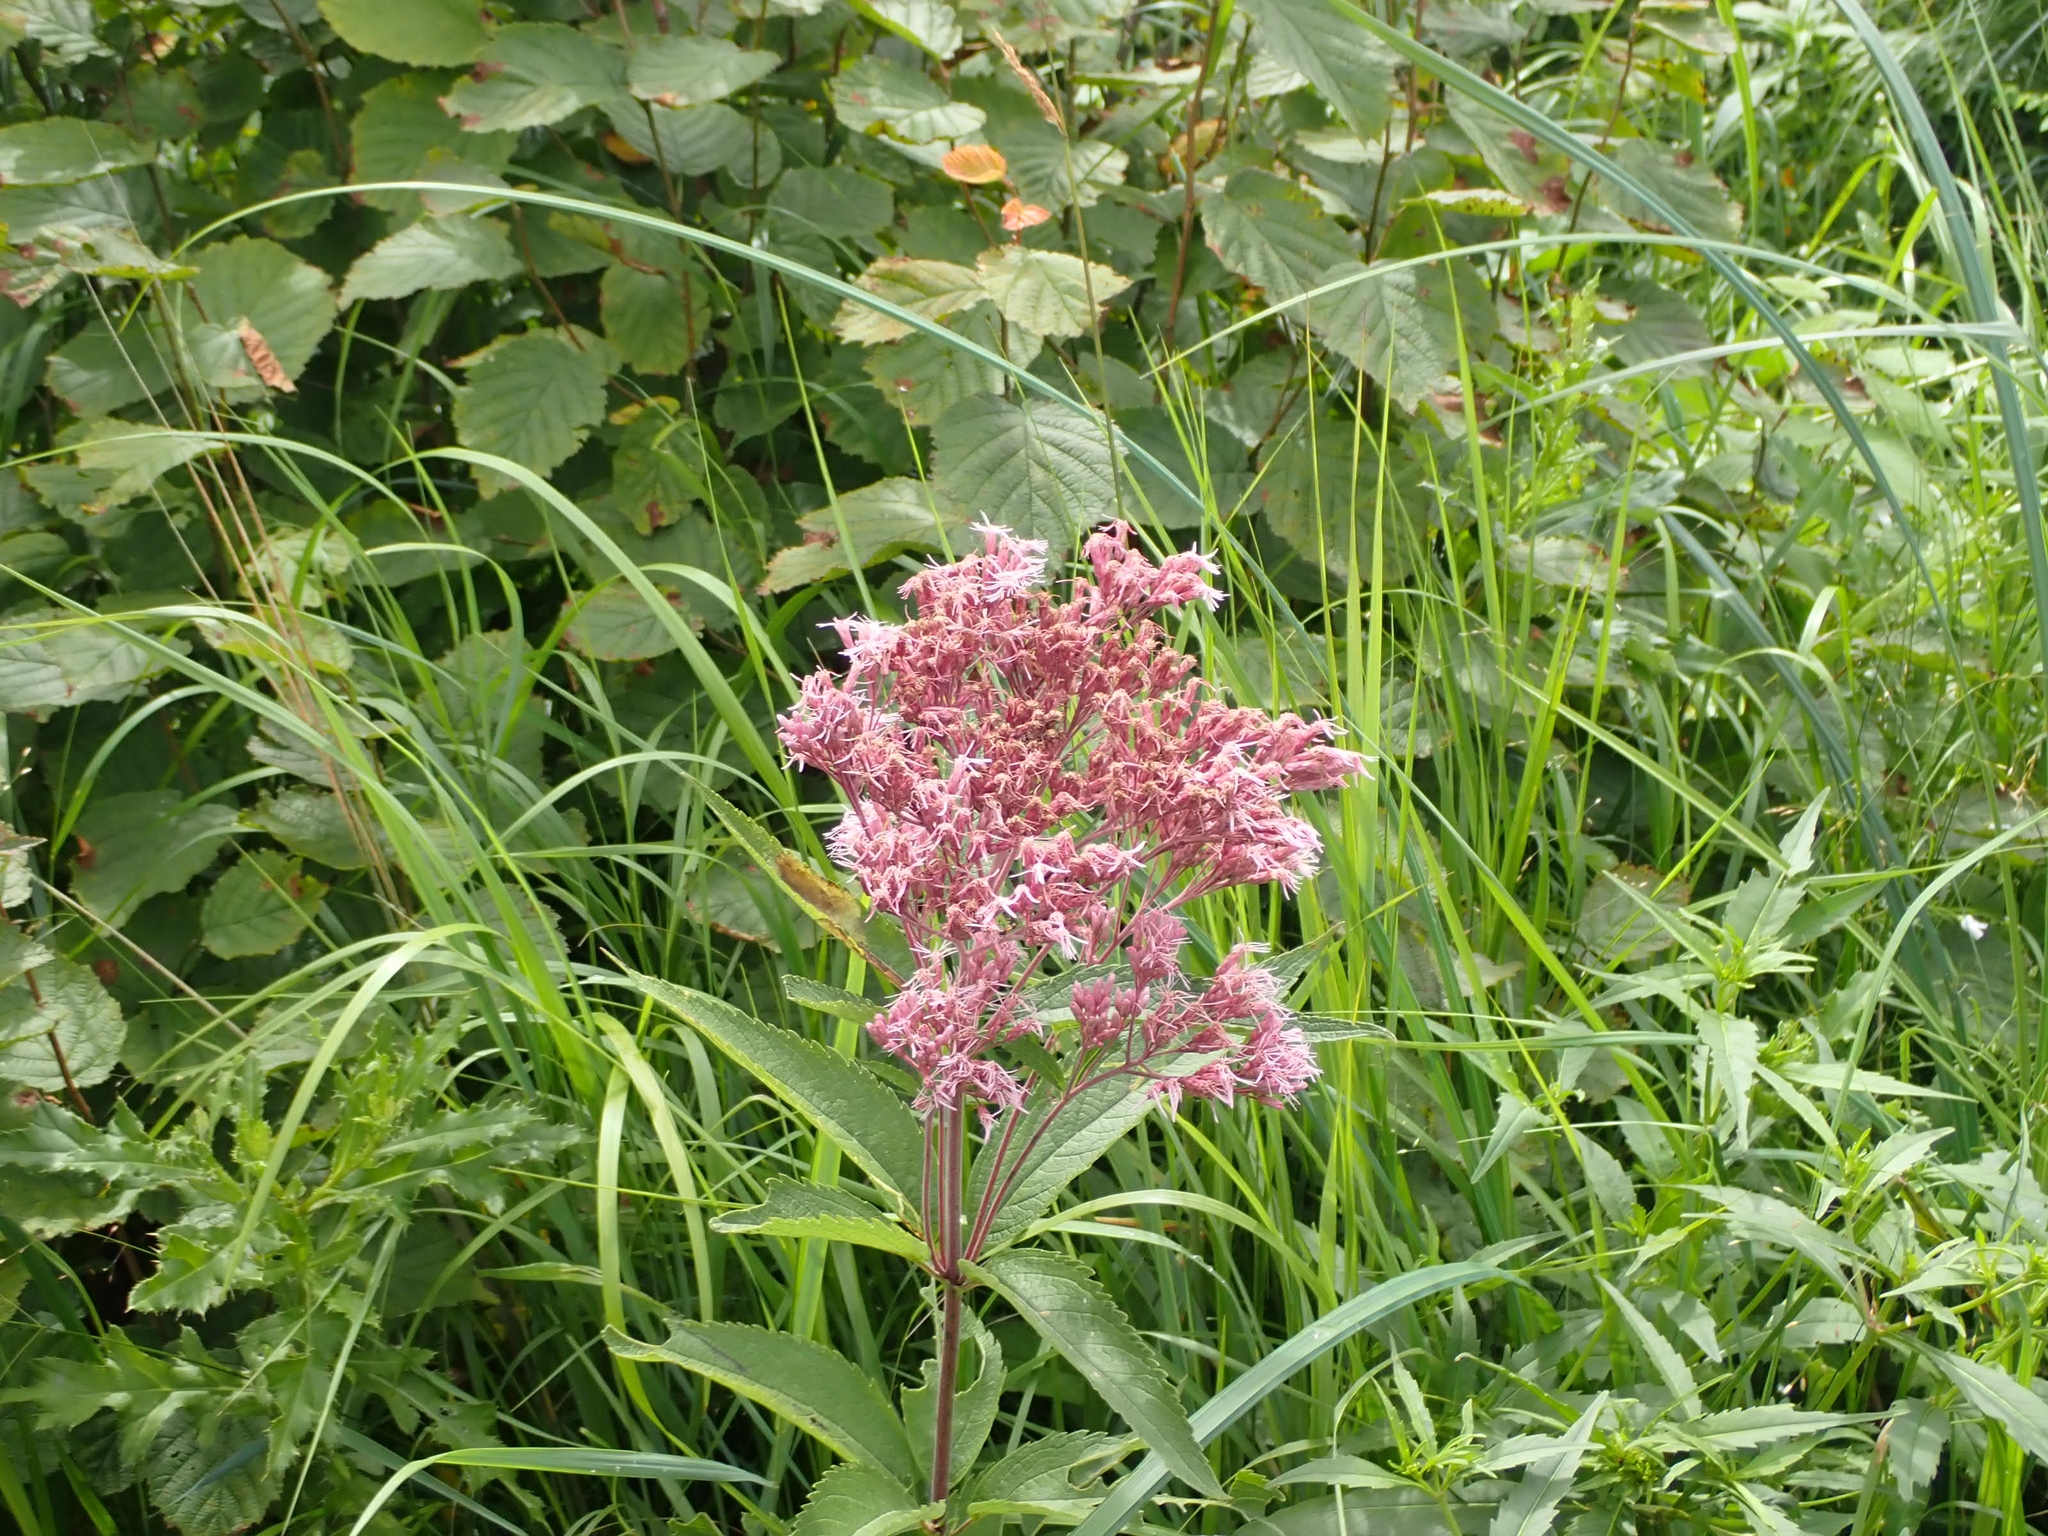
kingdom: Plantae
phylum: Tracheophyta
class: Magnoliopsida
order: Asterales
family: Asteraceae
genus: Eutrochium
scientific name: Eutrochium maculatum
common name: Spotted joe pye weed
